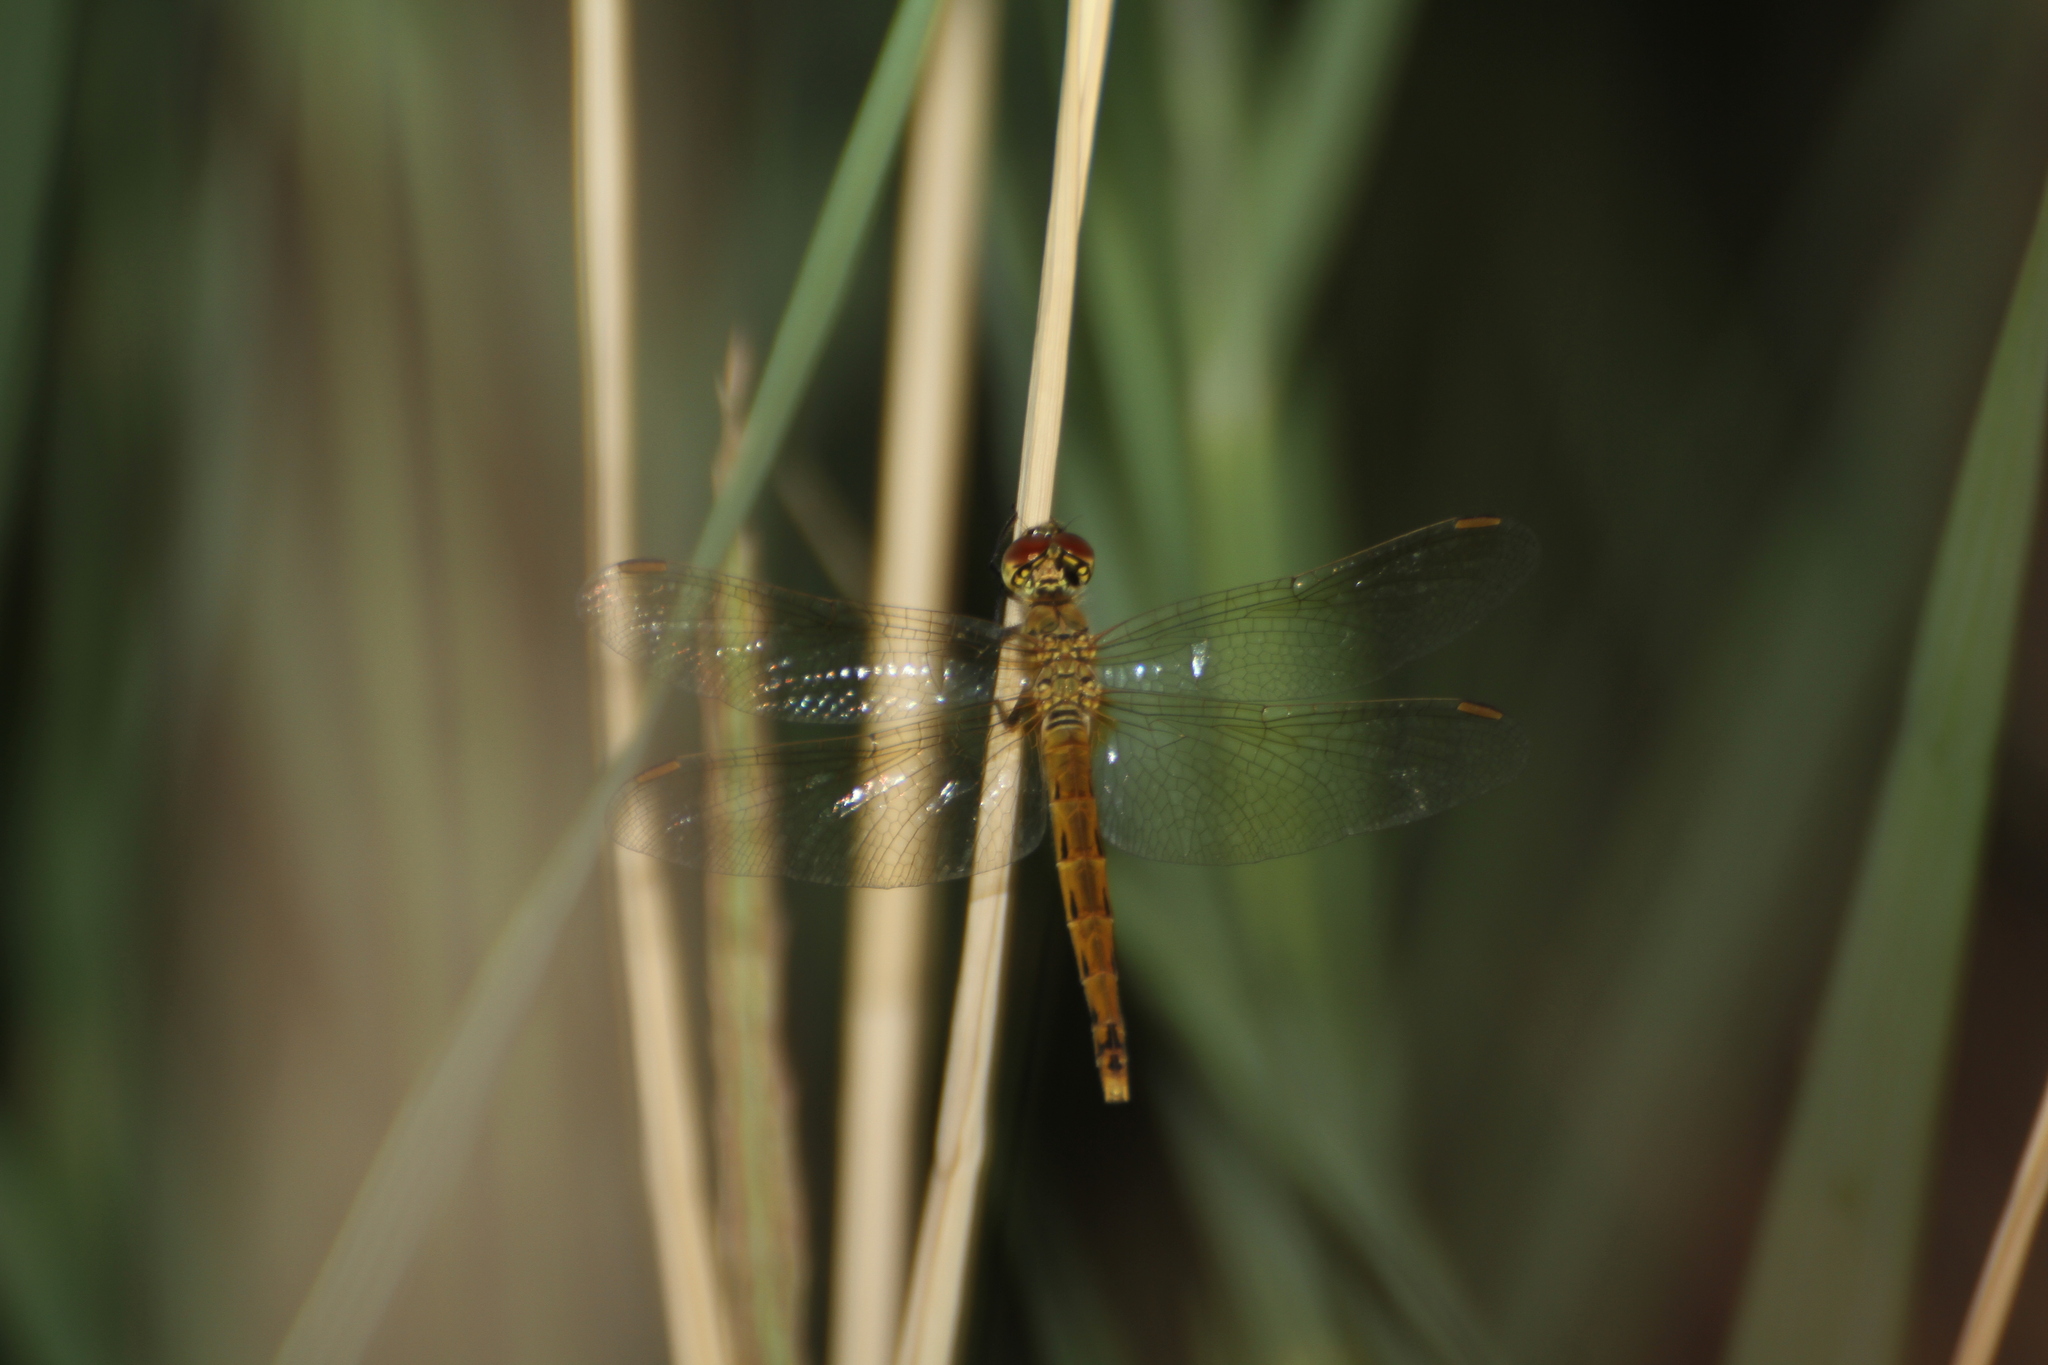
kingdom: Animalia
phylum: Arthropoda
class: Insecta
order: Odonata
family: Libellulidae
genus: Sympetrum
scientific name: Sympetrum depressiusculum
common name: Spotted darter
